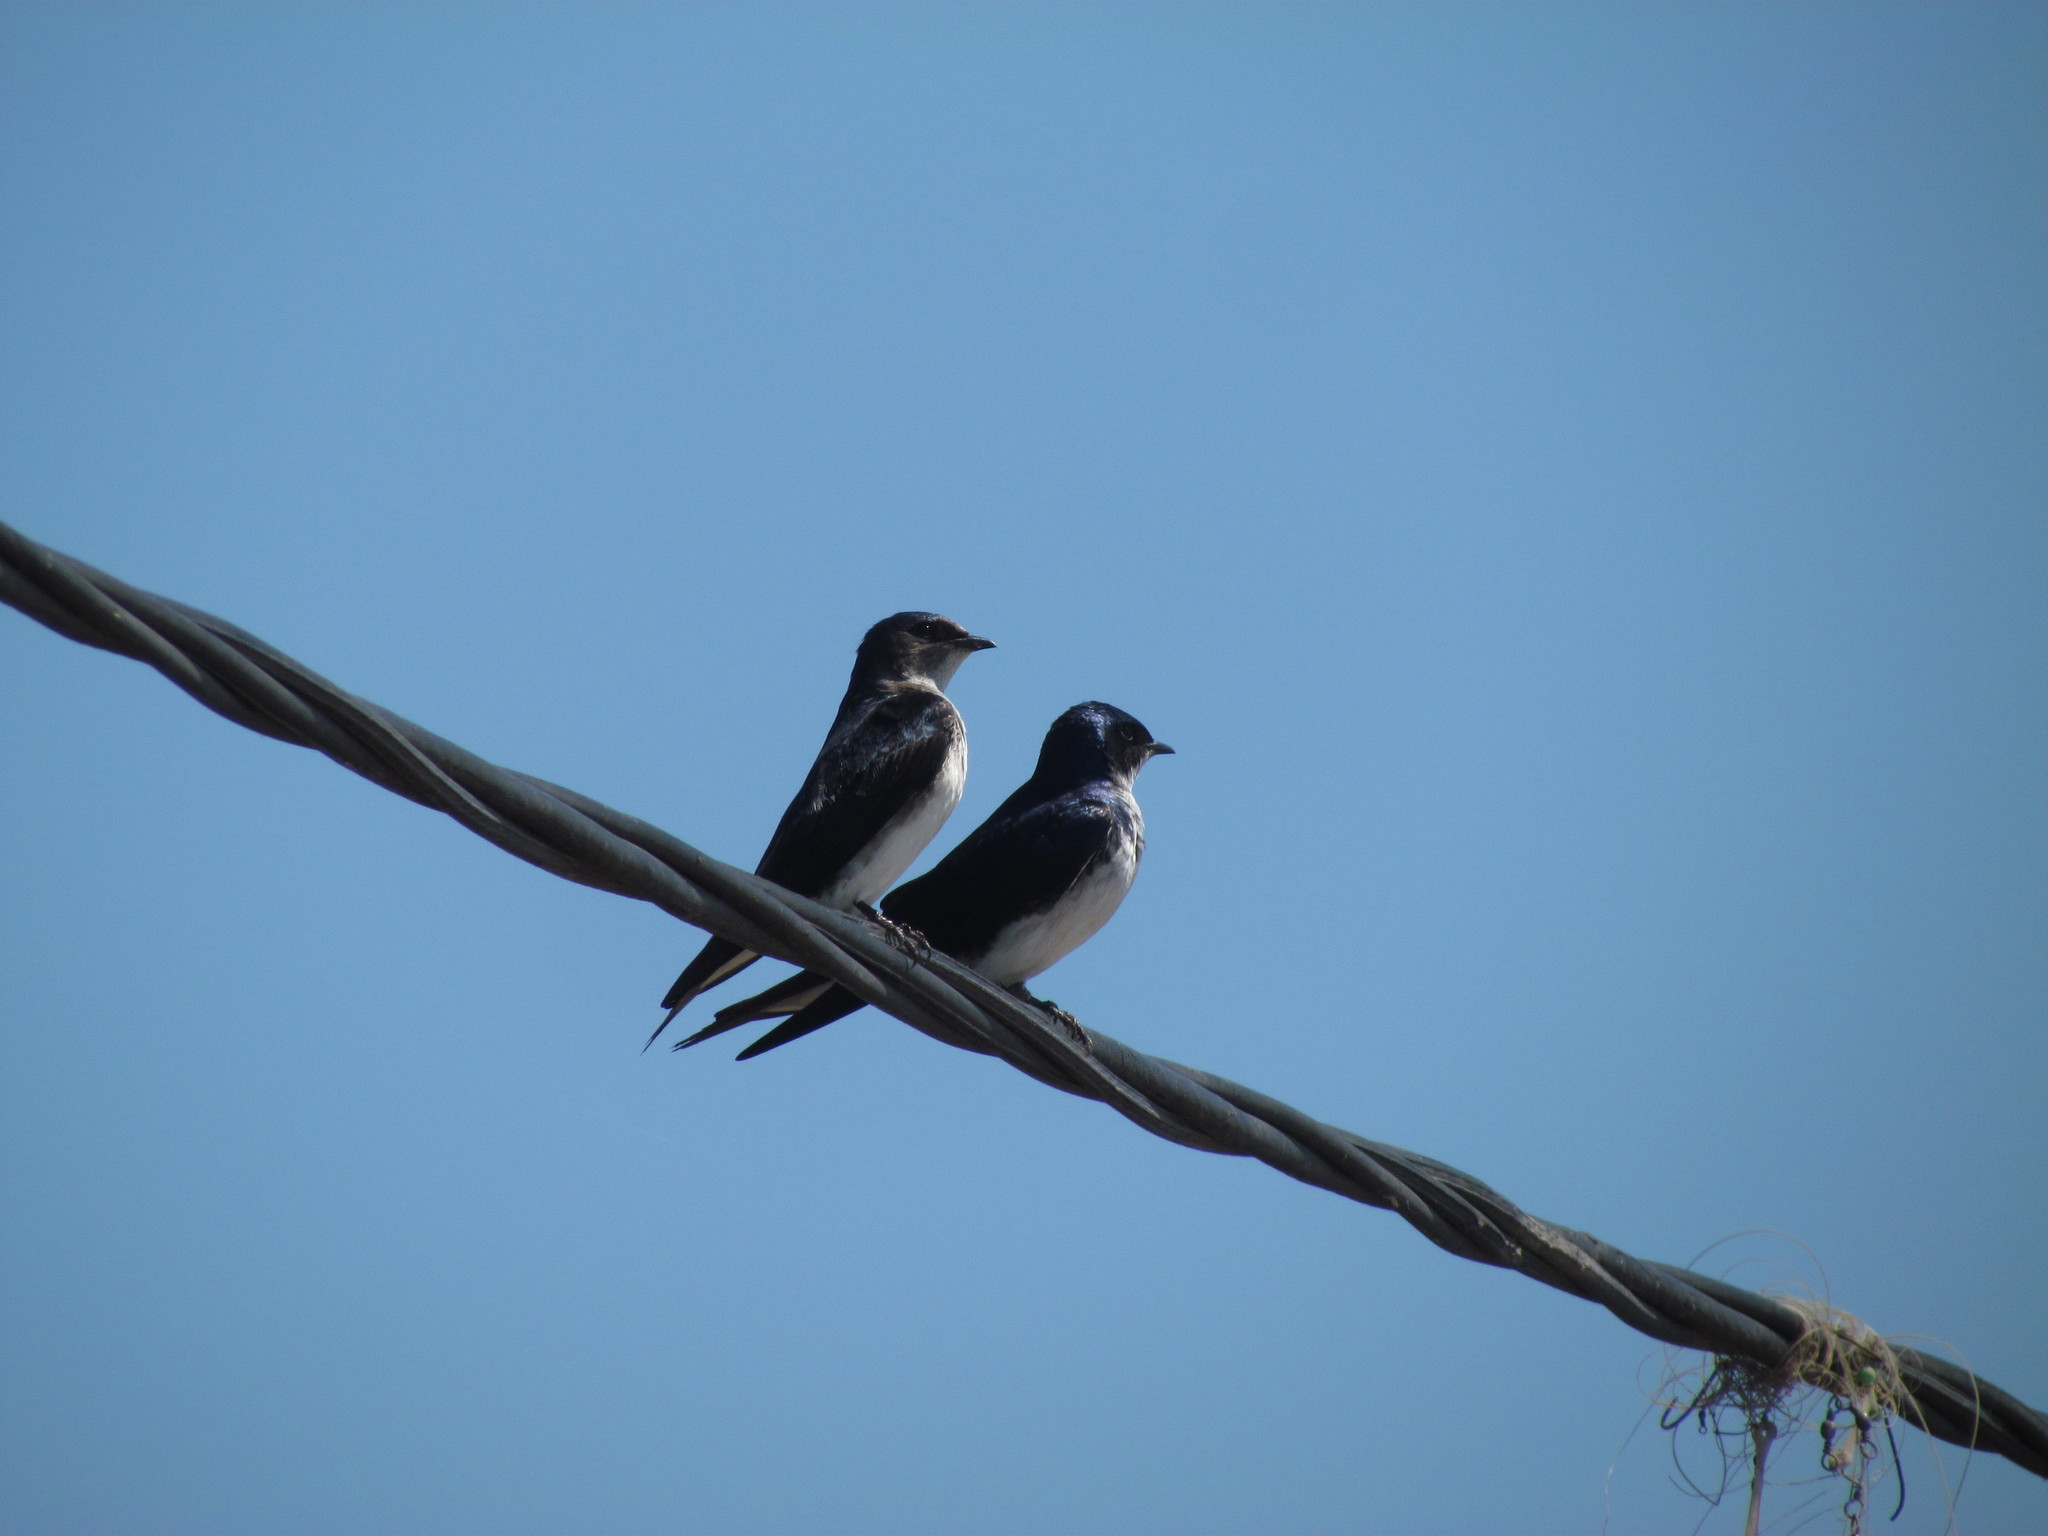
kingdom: Animalia
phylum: Chordata
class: Aves
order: Passeriformes
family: Hirundinidae
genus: Progne
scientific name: Progne chalybea
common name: Grey-breasted martin
